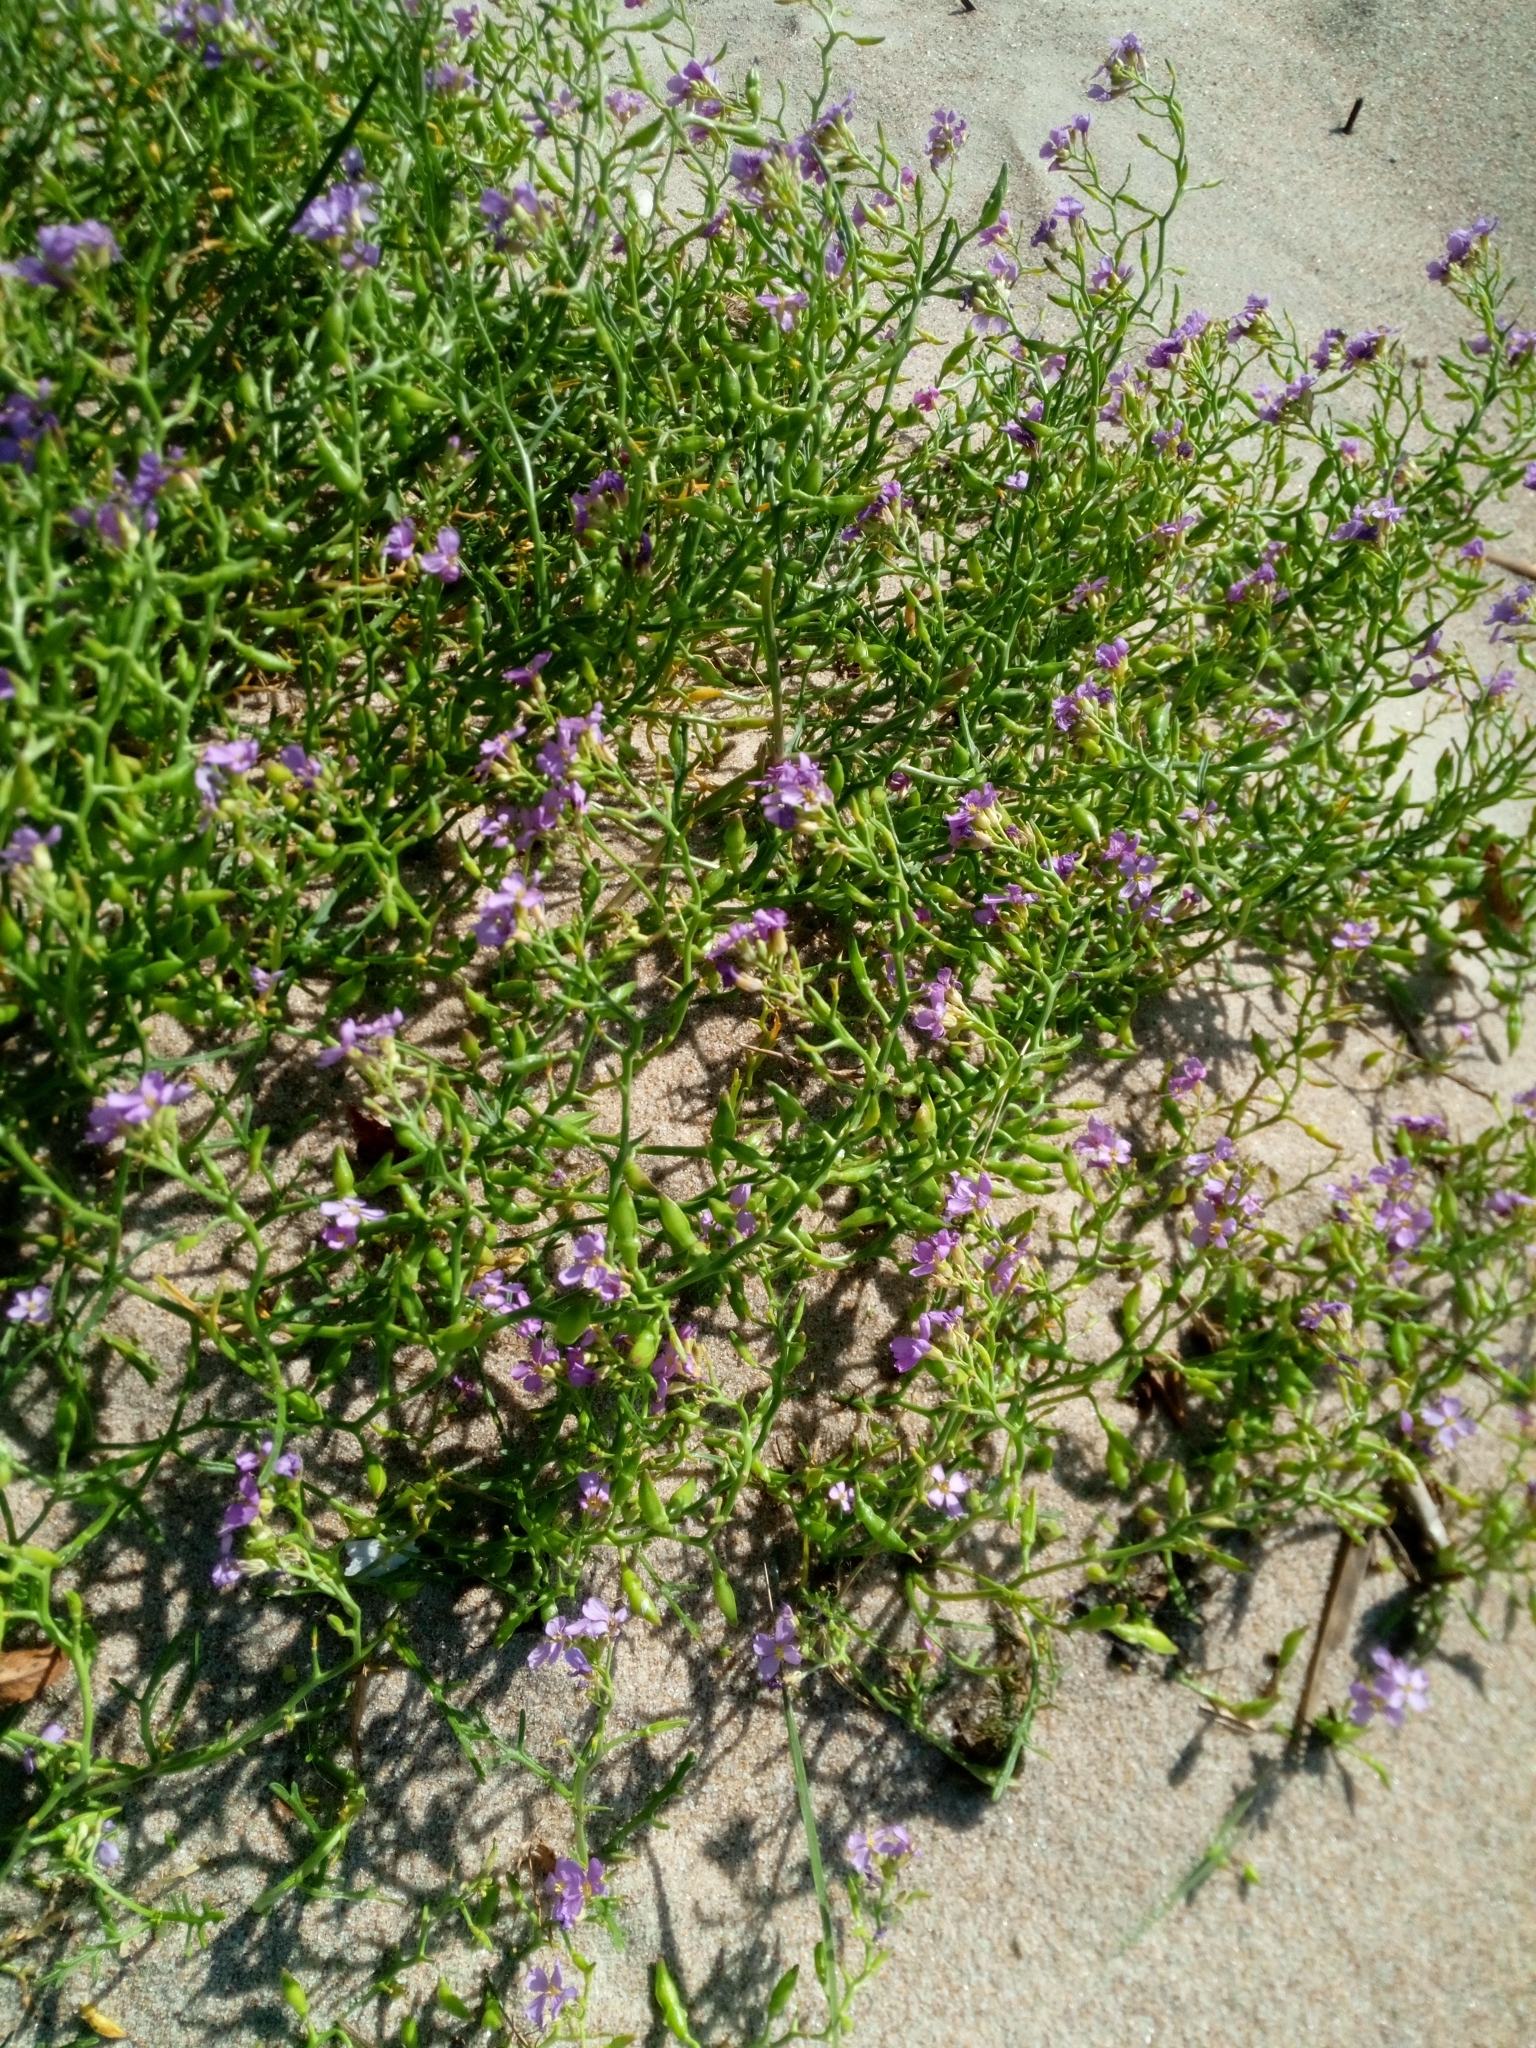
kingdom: Plantae
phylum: Tracheophyta
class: Magnoliopsida
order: Brassicales
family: Brassicaceae
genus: Cakile
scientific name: Cakile maritima
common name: Sea rocket
